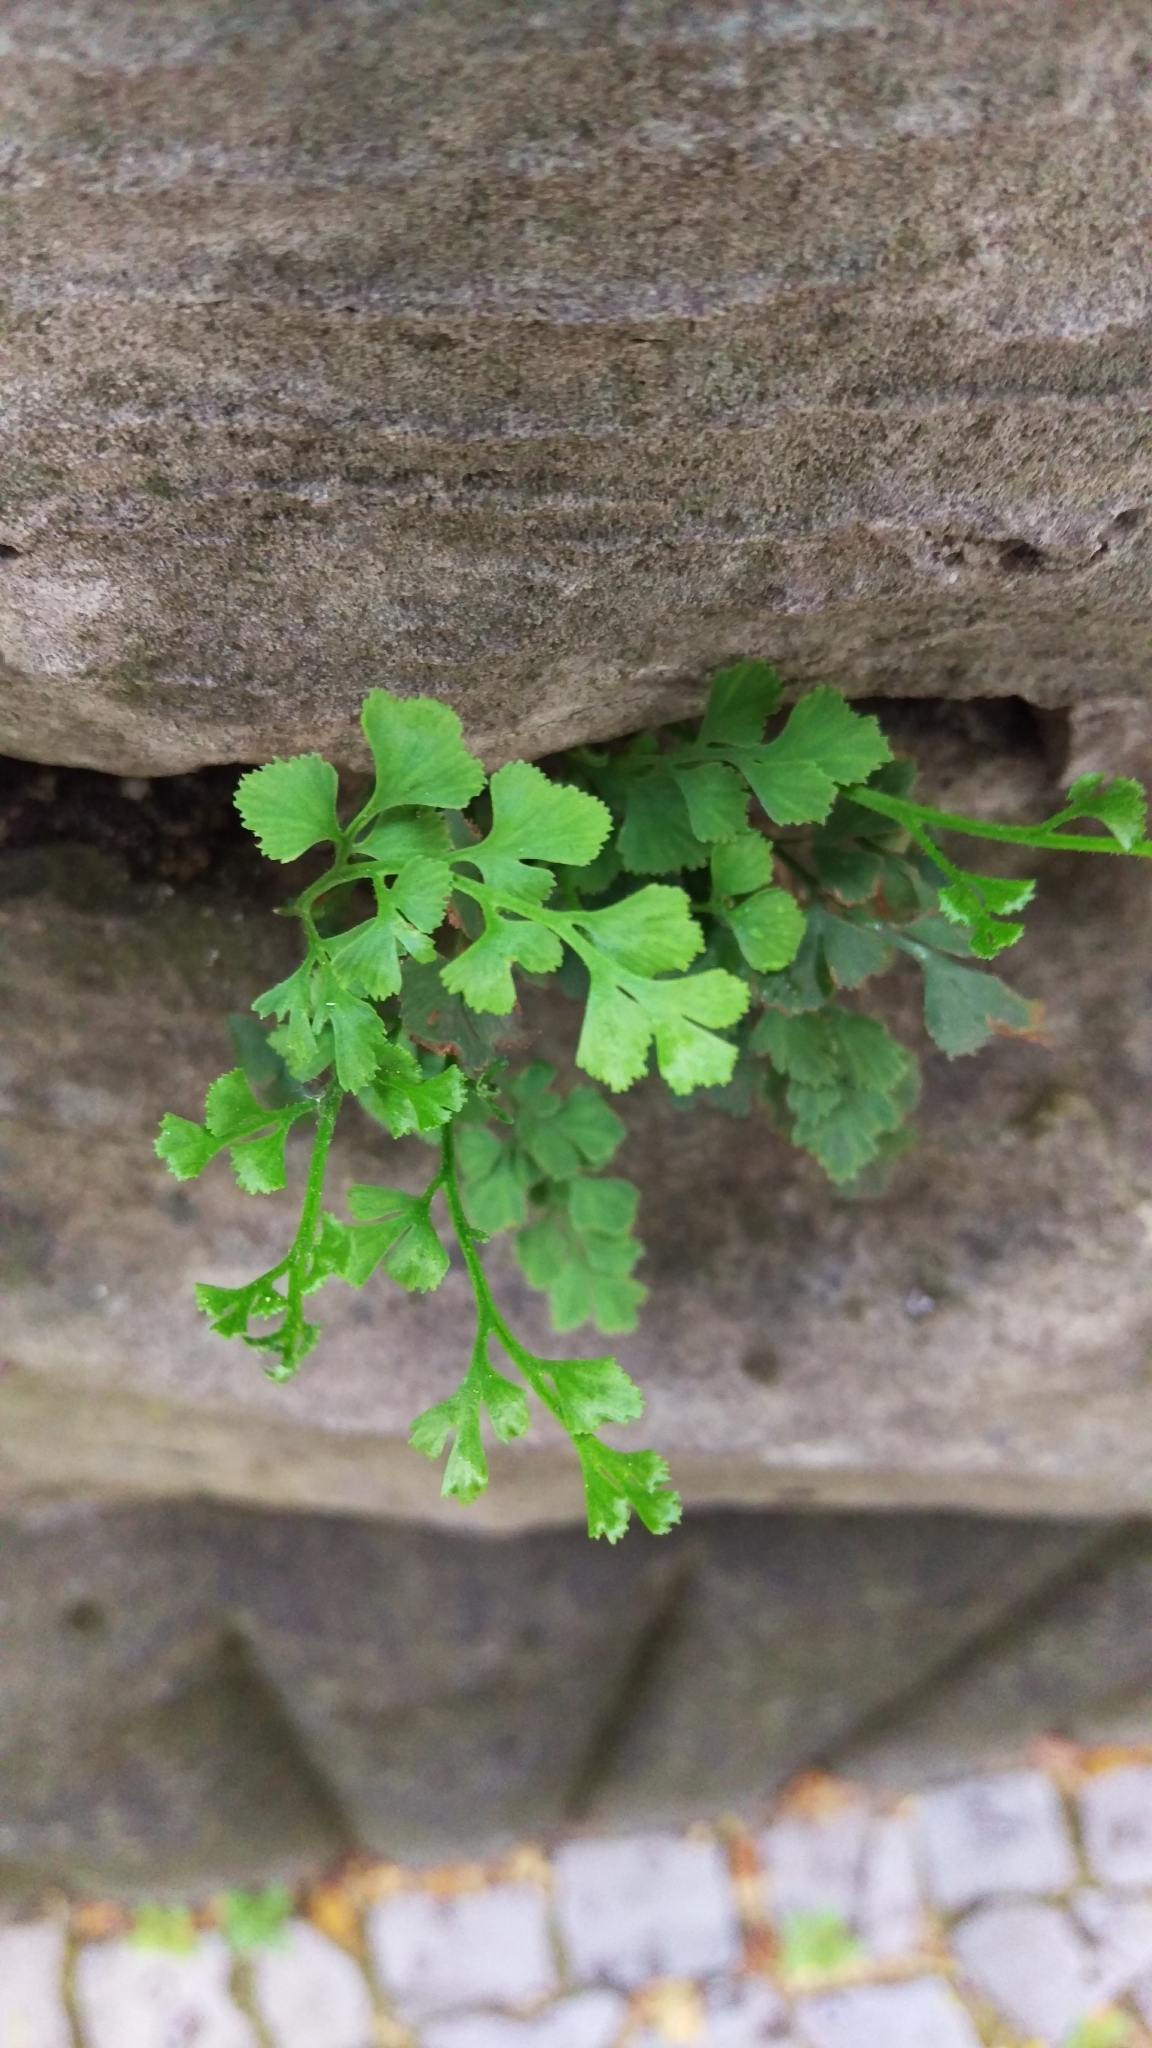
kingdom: Plantae
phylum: Tracheophyta
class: Polypodiopsida
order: Polypodiales
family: Aspleniaceae
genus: Asplenium
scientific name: Asplenium ruta-muraria
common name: Wall-rue
